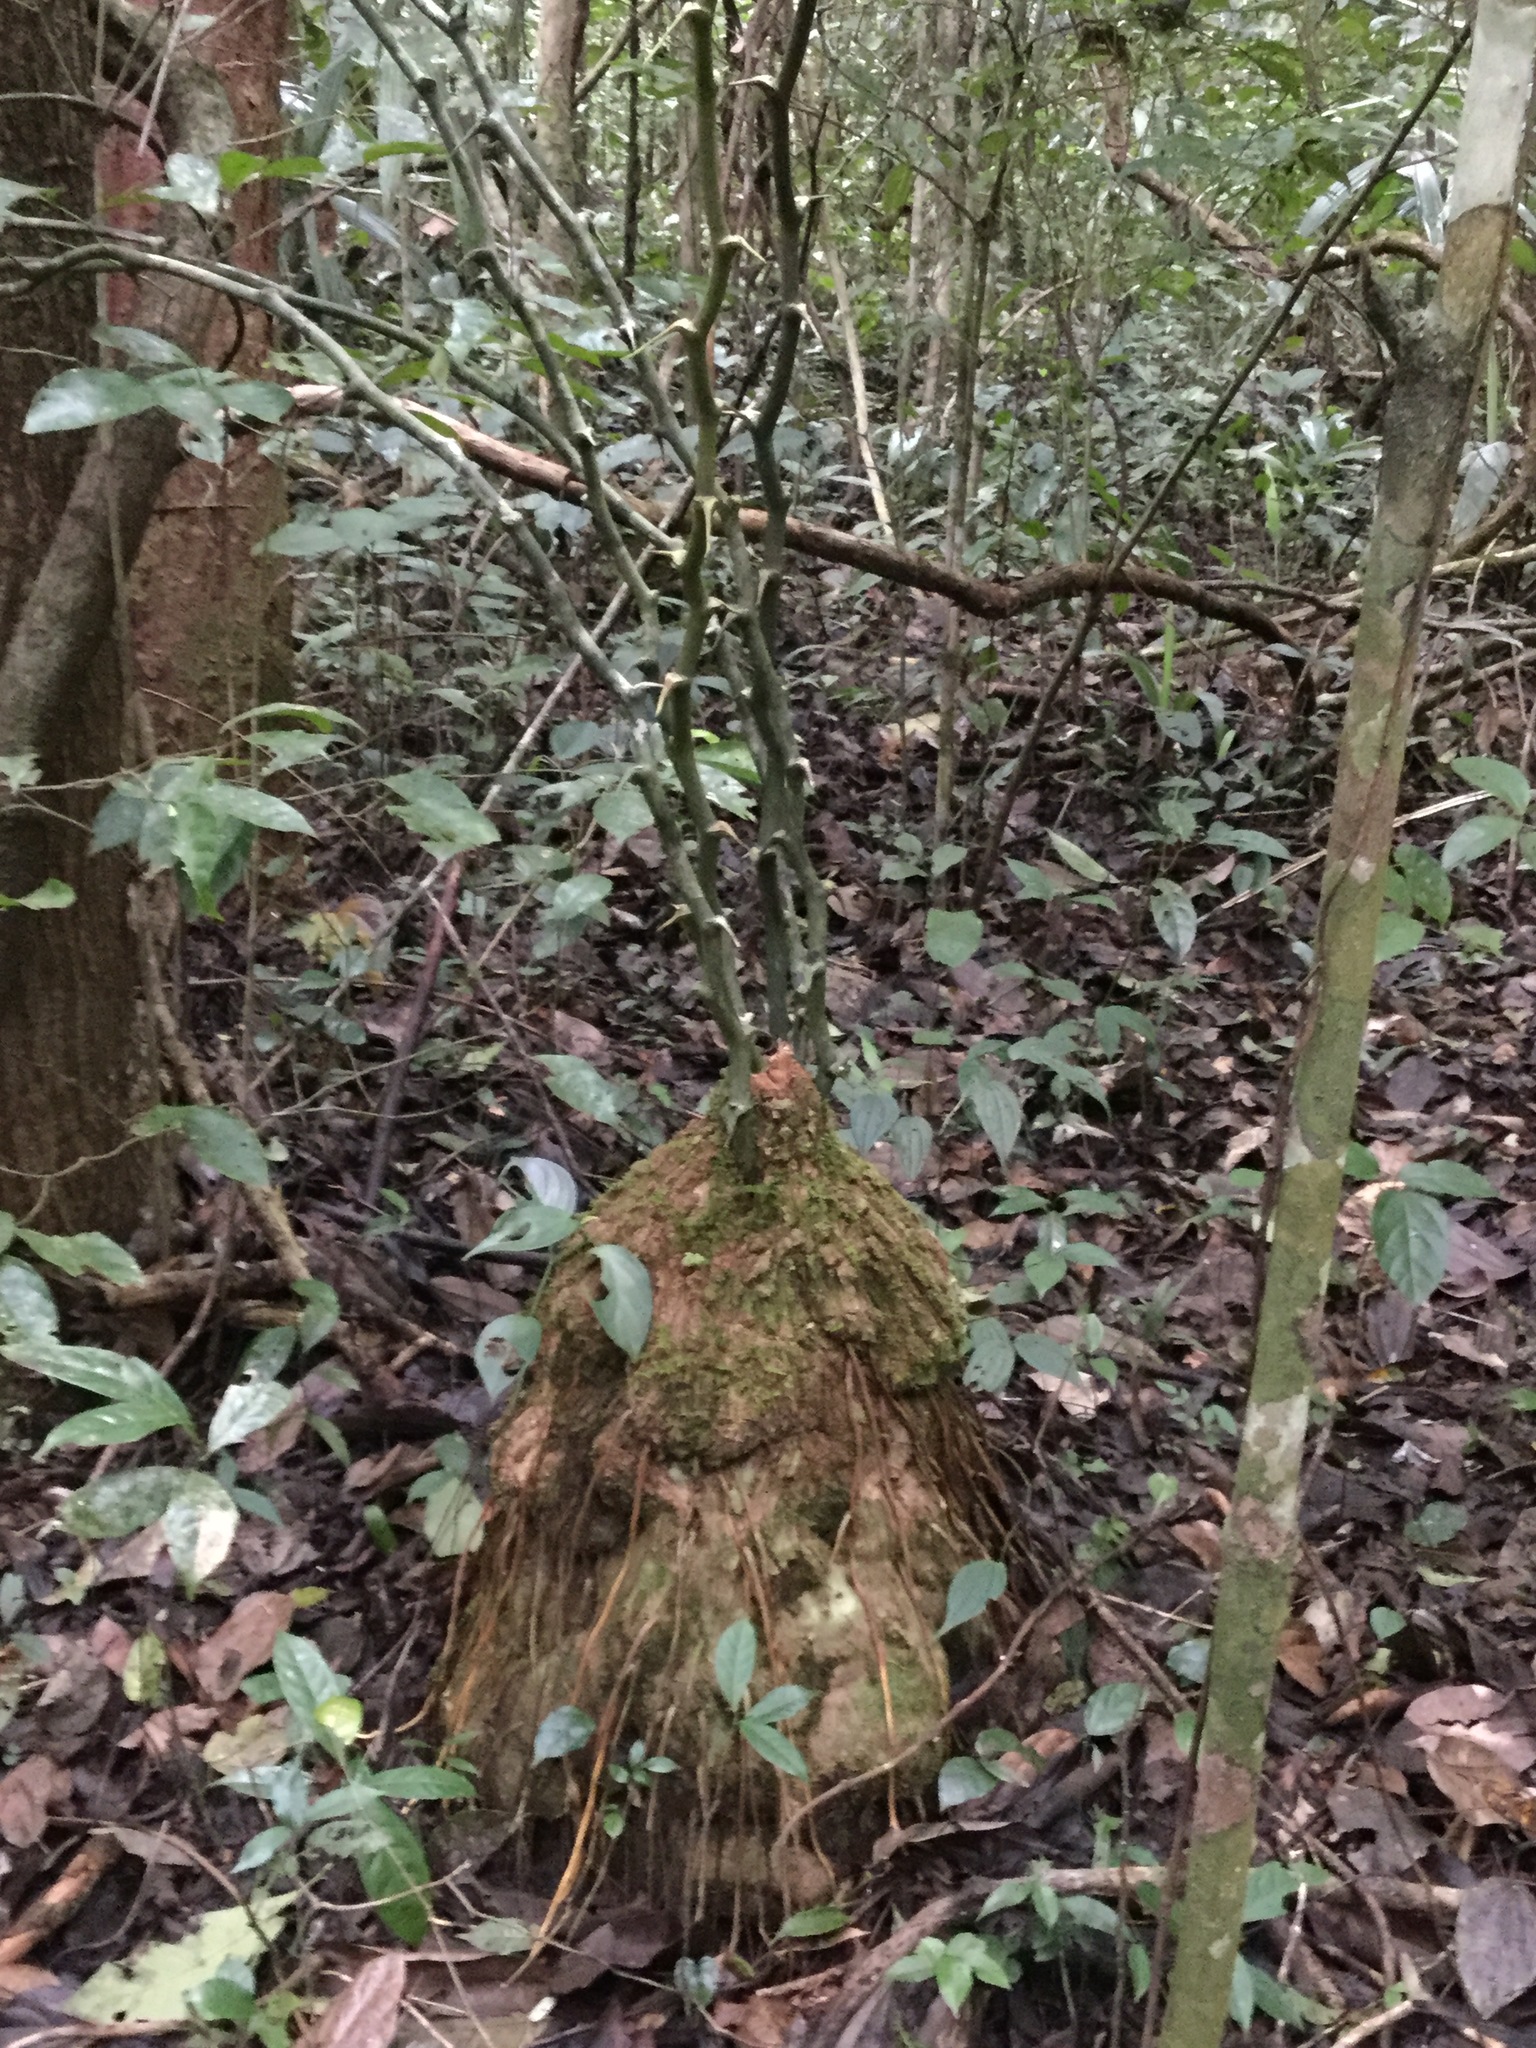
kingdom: Plantae
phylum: Tracheophyta
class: Liliopsida
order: Dioscoreales
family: Dioscoreaceae
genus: Dioscorea
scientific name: Dioscorea bartlettii
